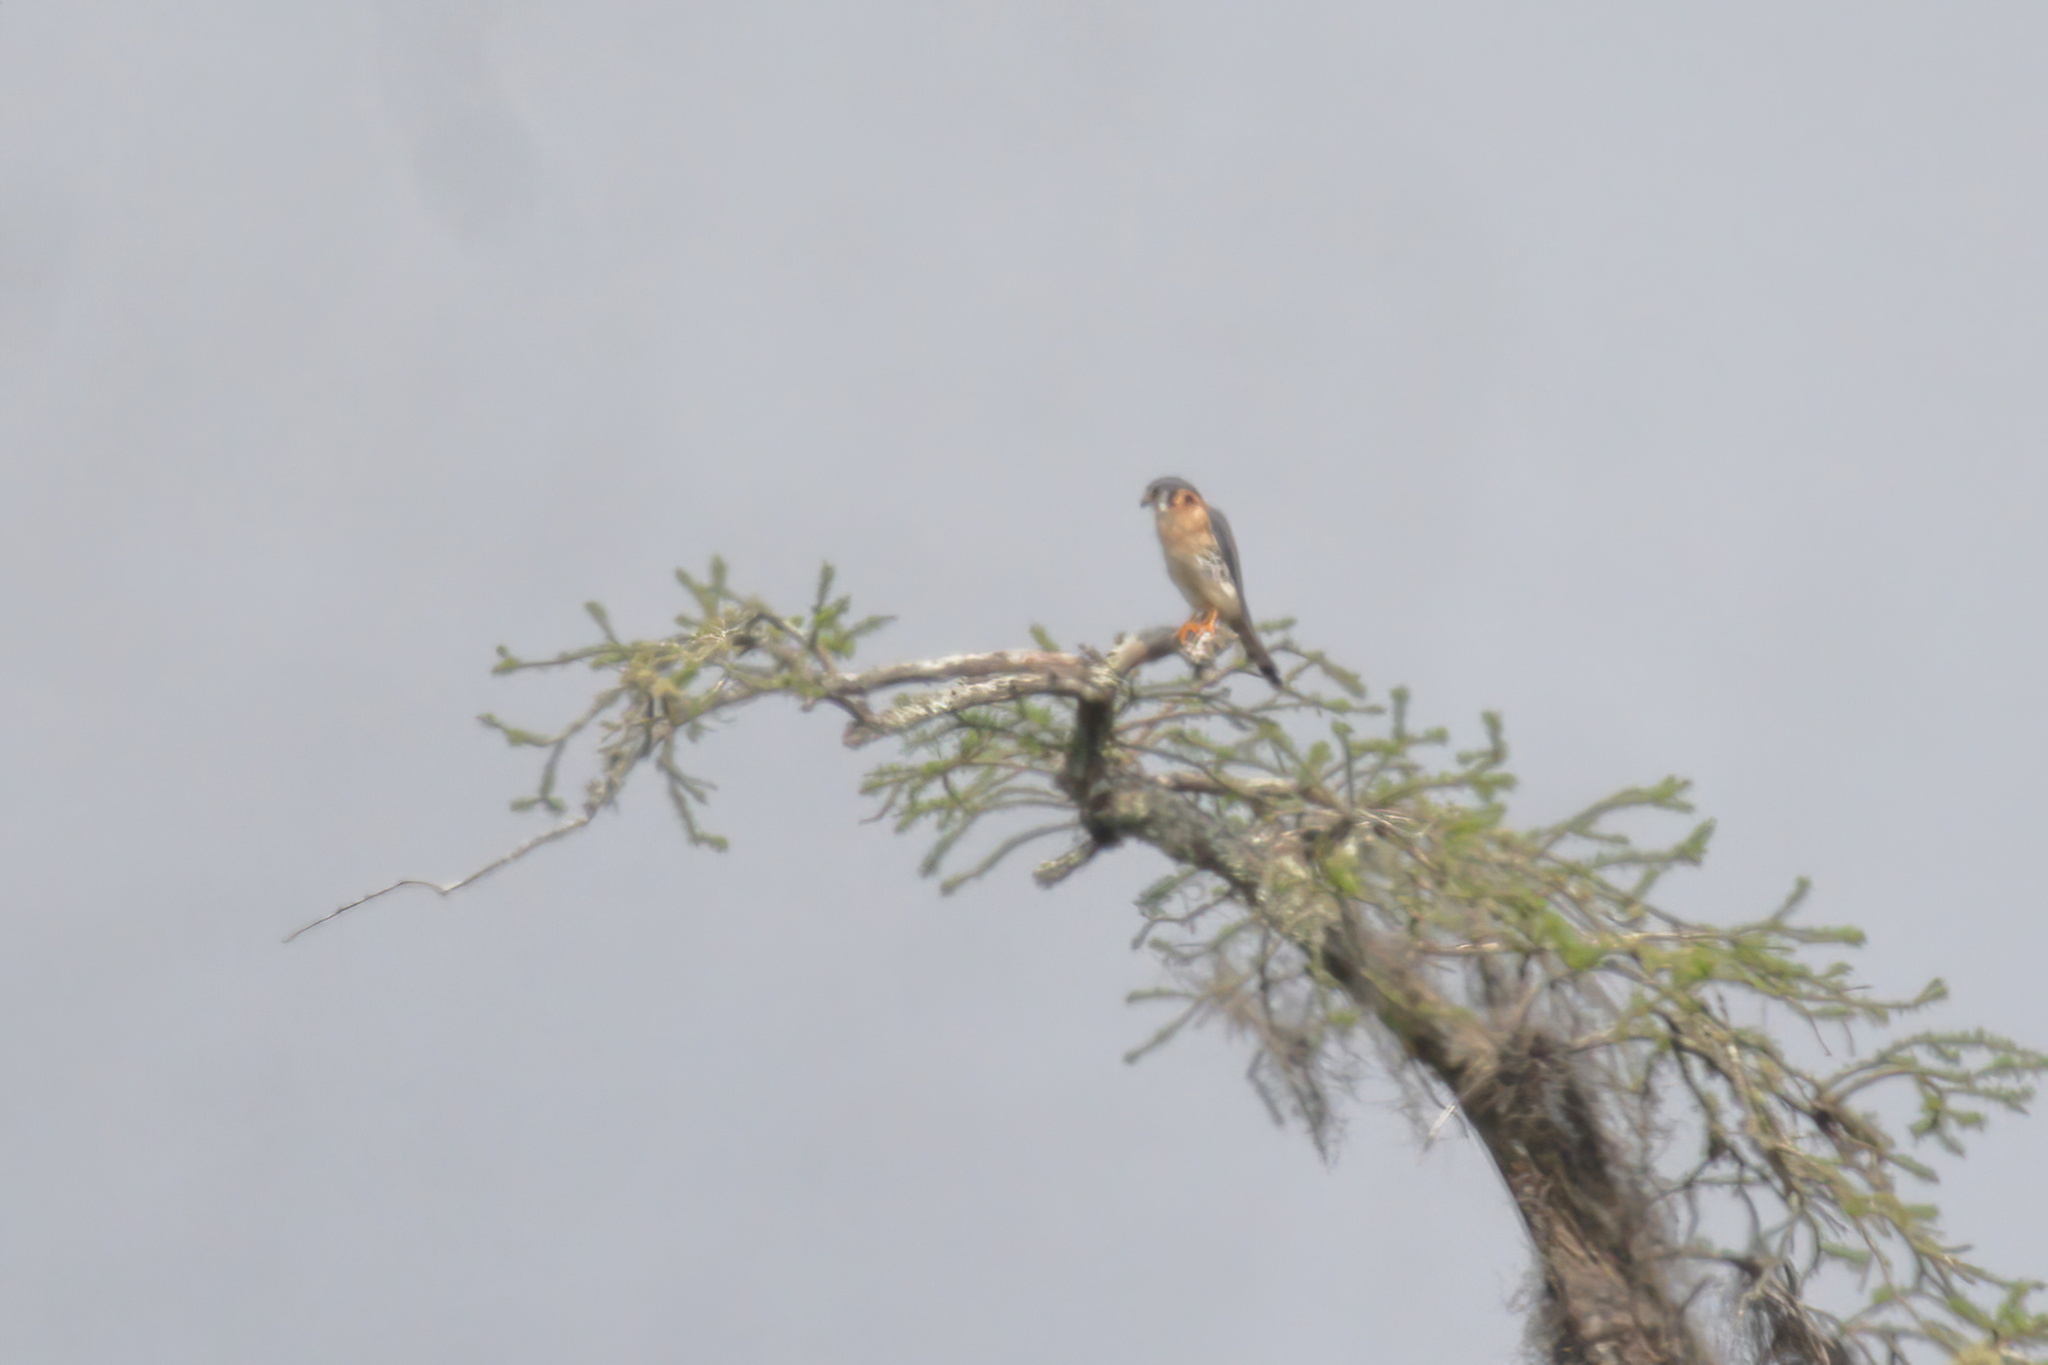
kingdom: Animalia
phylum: Chordata
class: Aves
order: Falconiformes
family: Falconidae
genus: Falco
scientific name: Falco sparverius
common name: American kestrel
